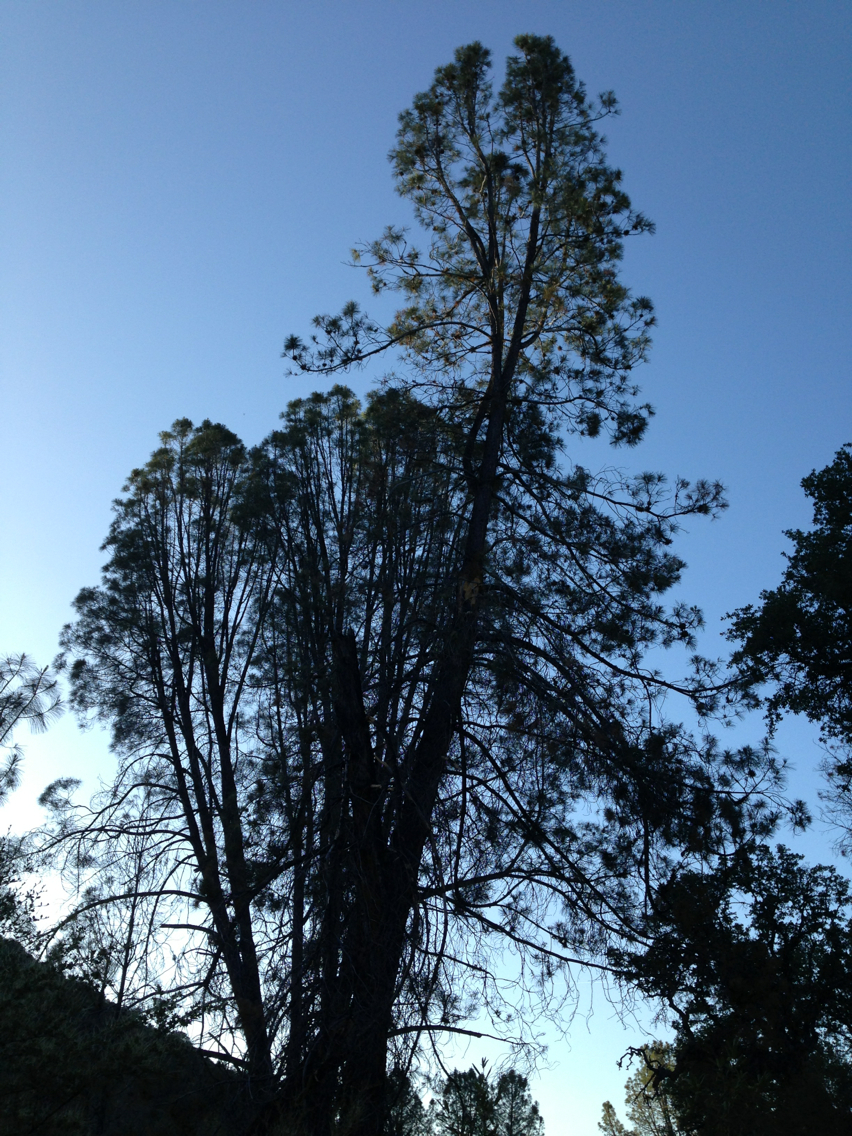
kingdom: Plantae
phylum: Tracheophyta
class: Pinopsida
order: Pinales
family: Pinaceae
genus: Pinus
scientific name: Pinus sabiniana
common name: Bull pine
